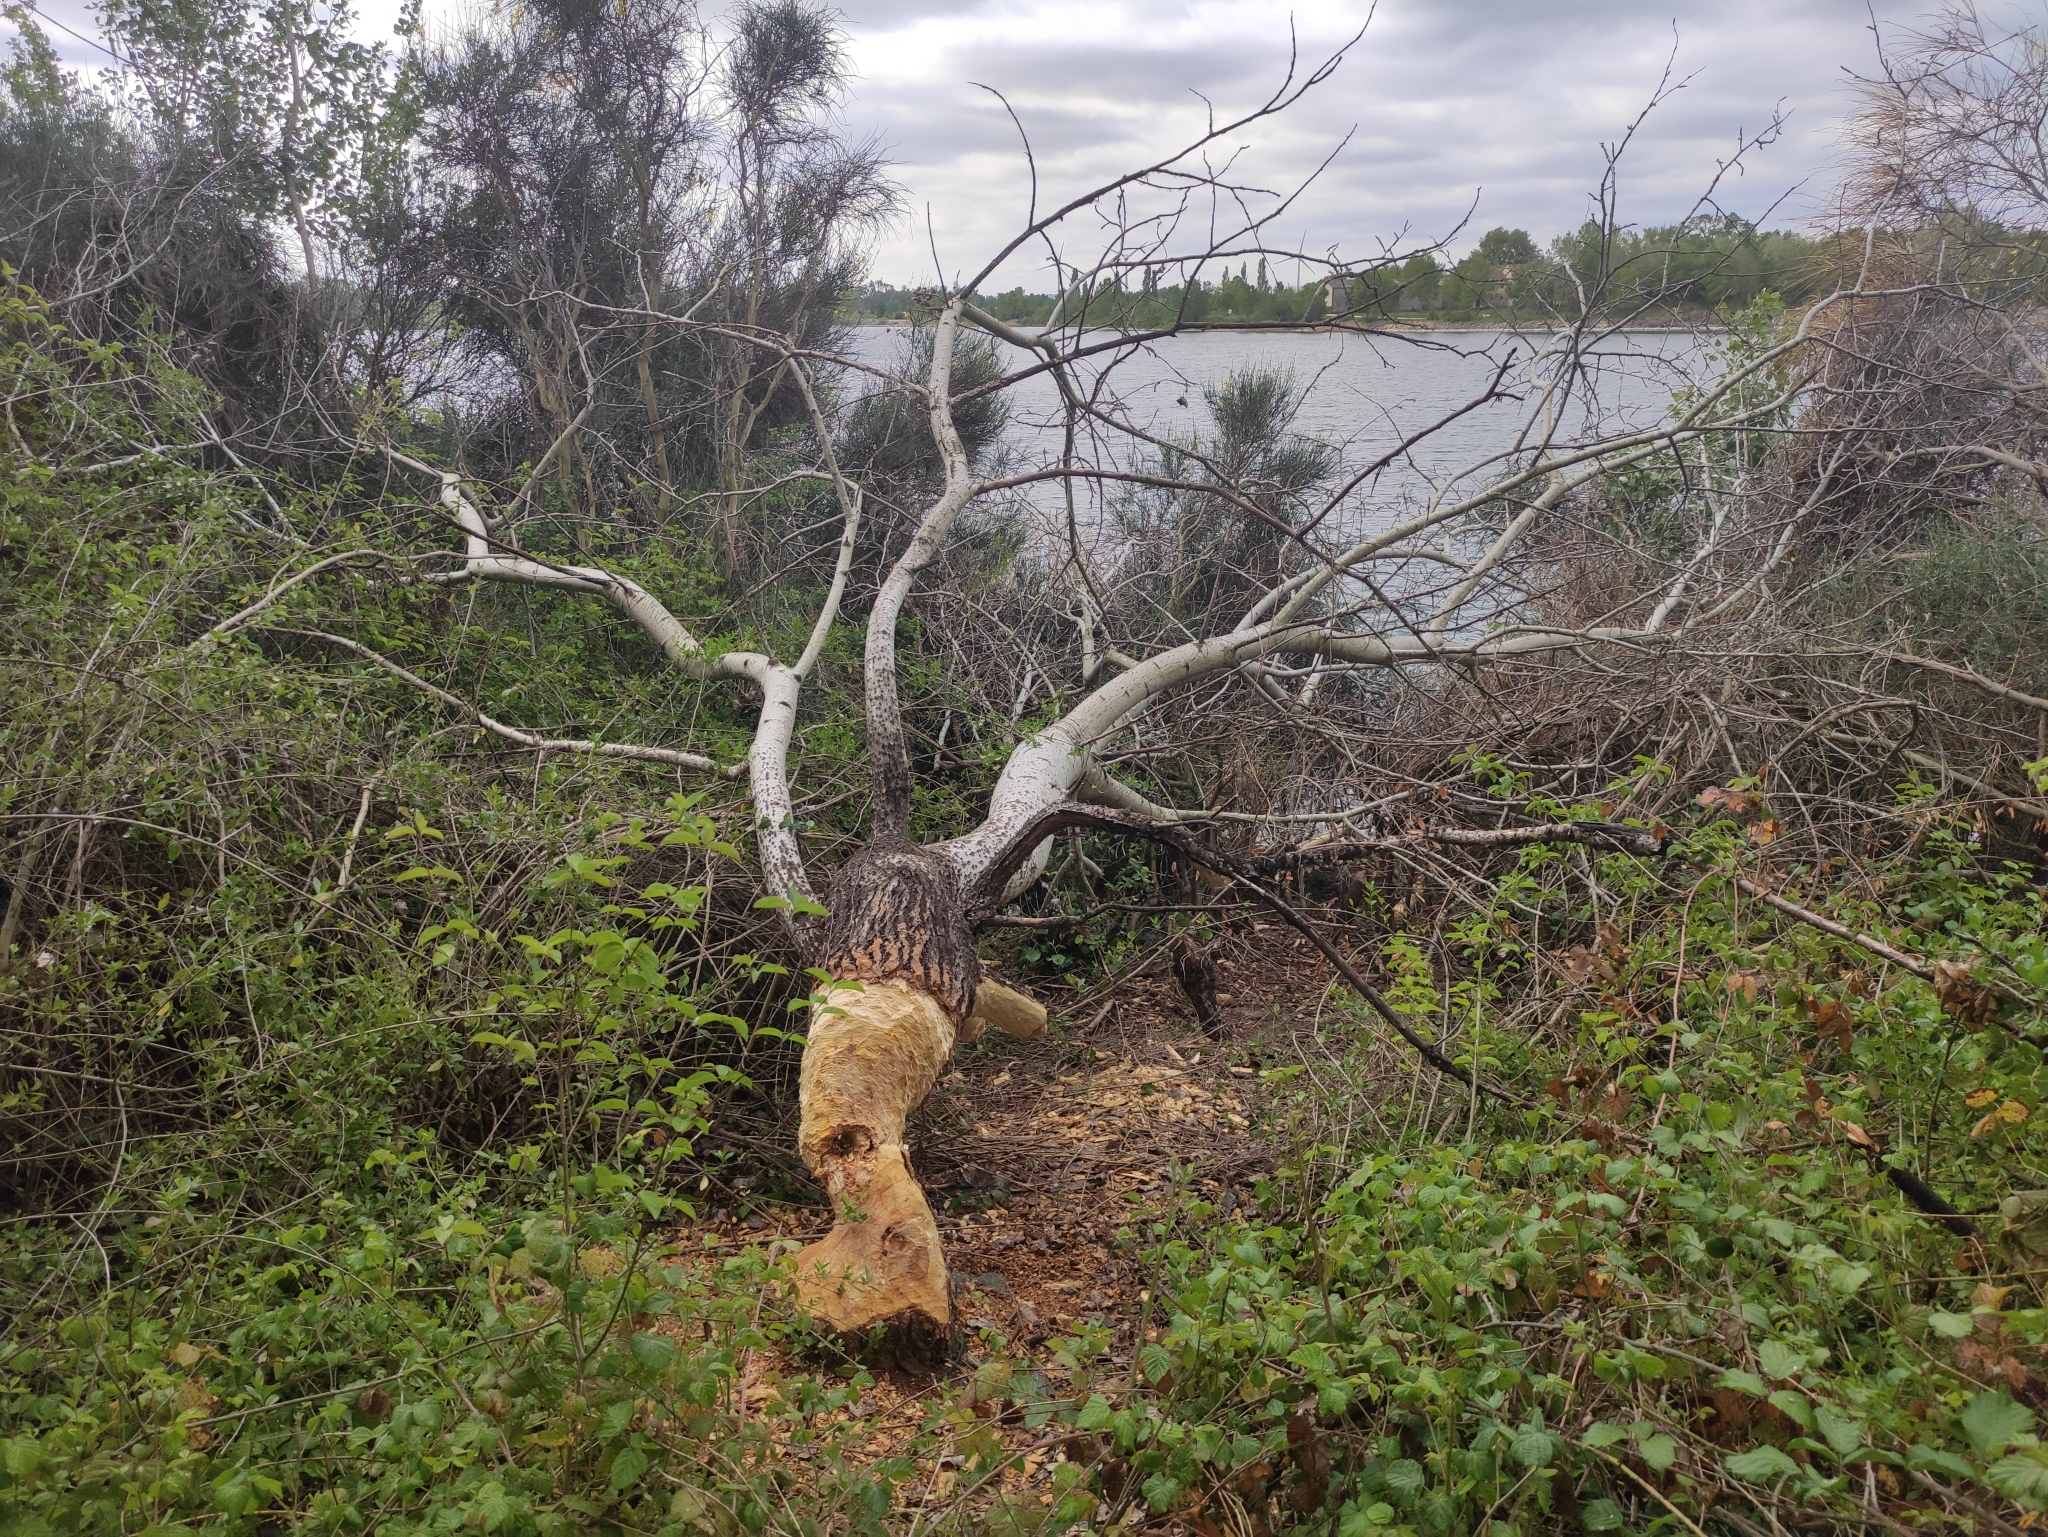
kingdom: Animalia
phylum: Chordata
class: Mammalia
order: Rodentia
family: Castoridae
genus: Castor
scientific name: Castor fiber
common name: Eurasian beaver
